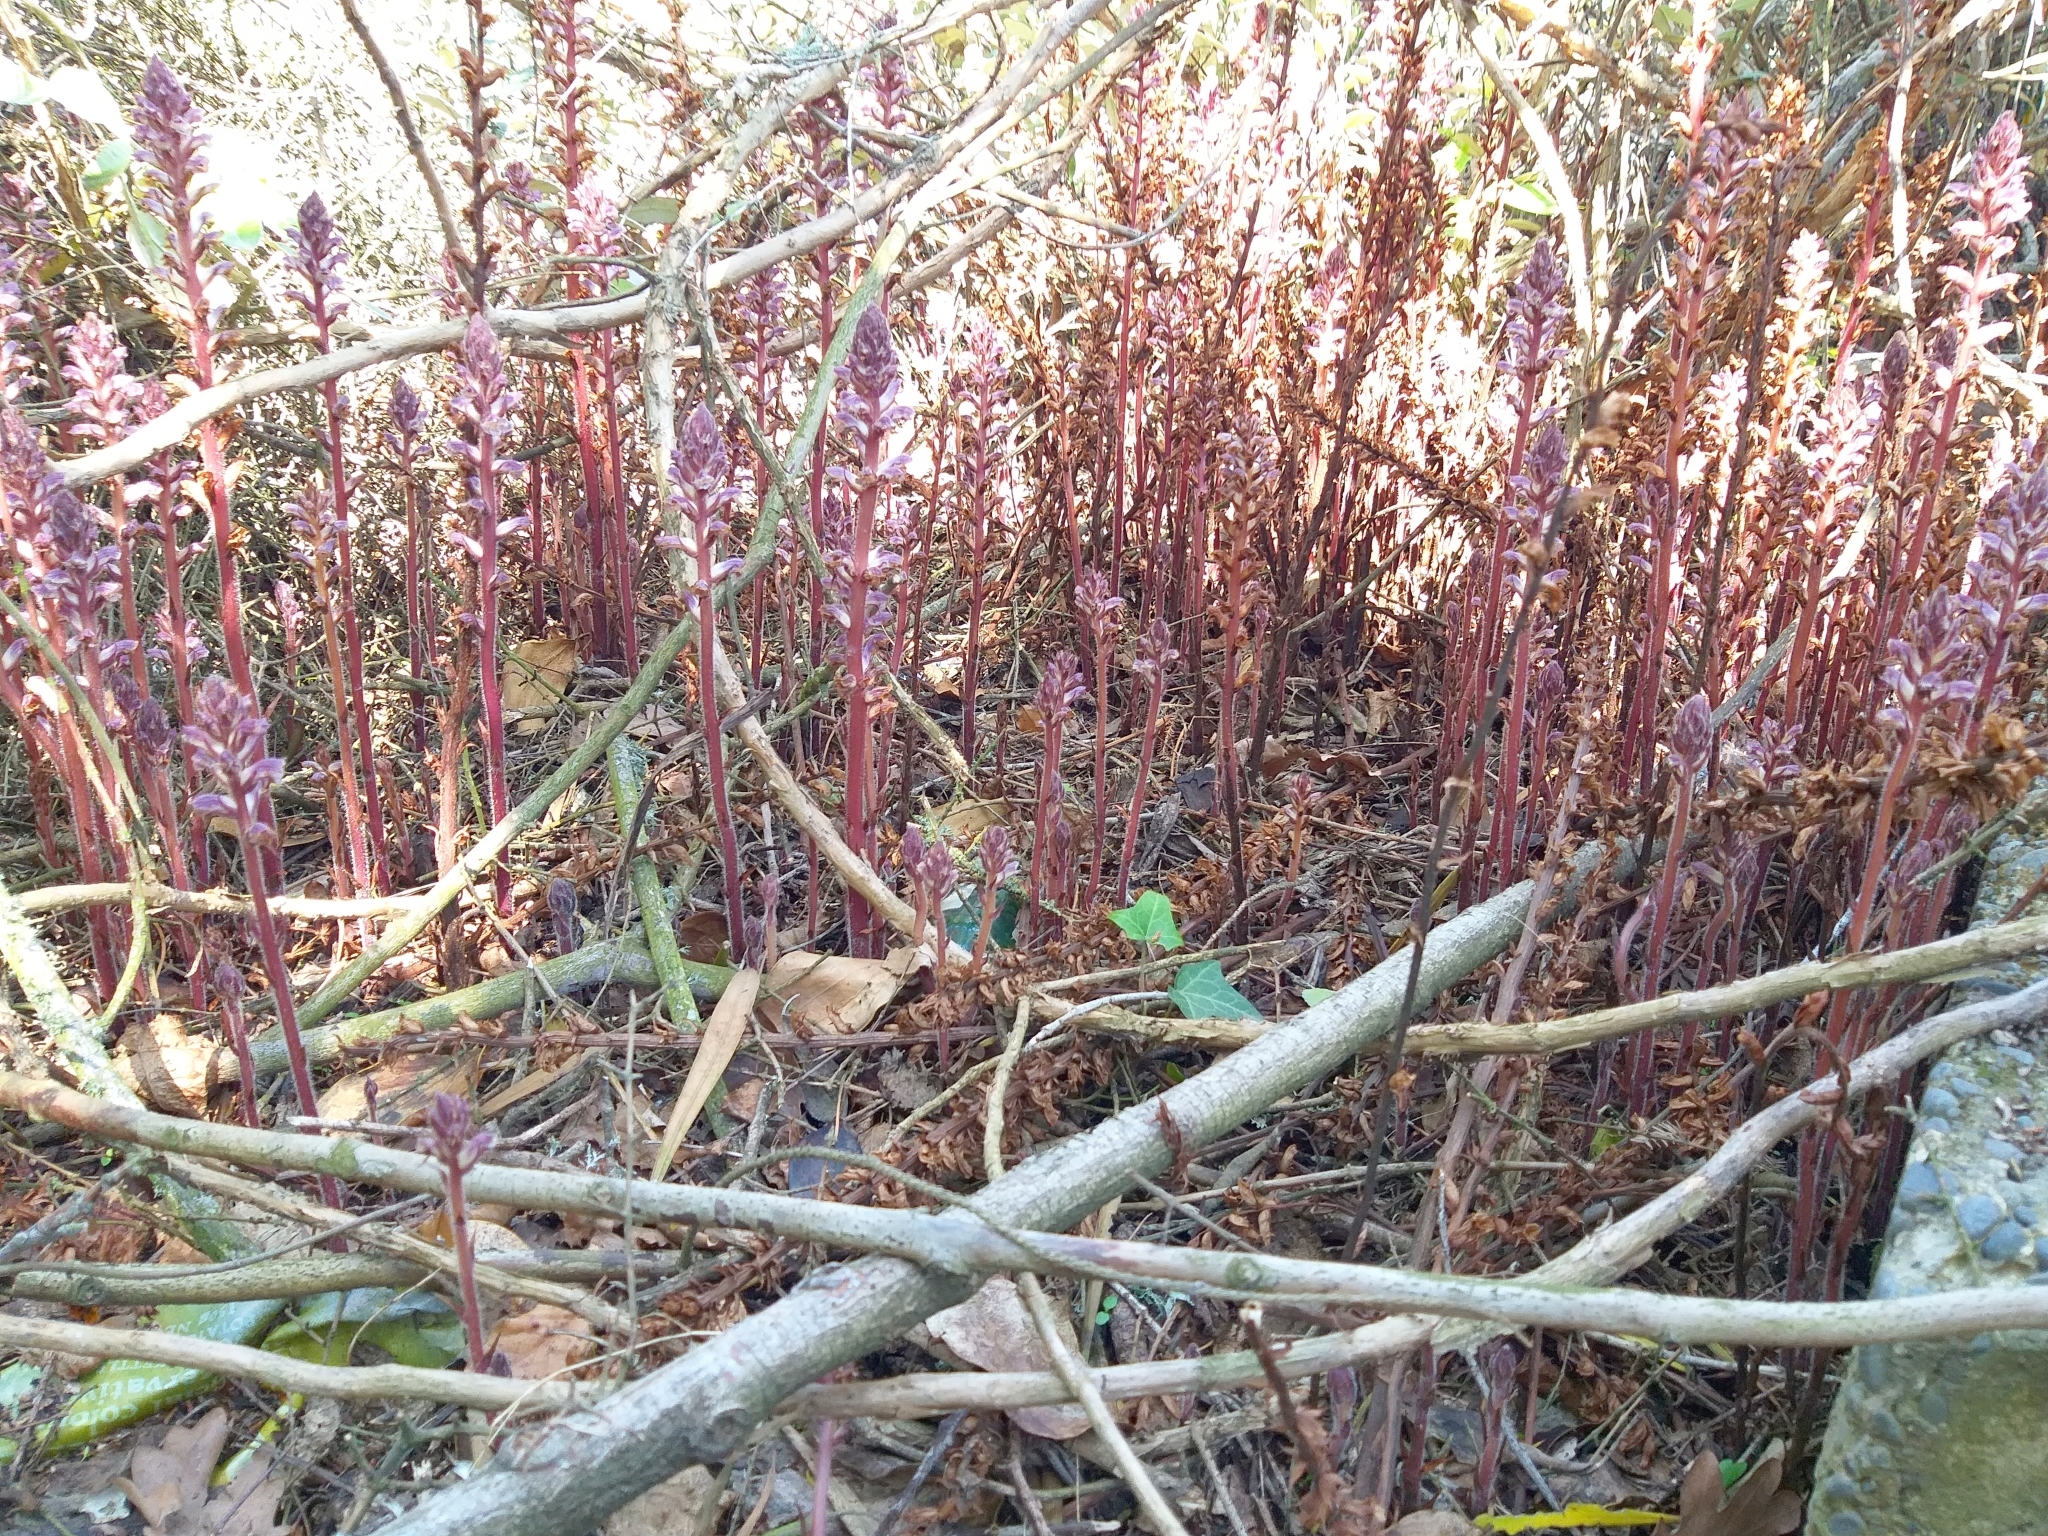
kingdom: Plantae
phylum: Tracheophyta
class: Magnoliopsida
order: Lamiales
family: Orobanchaceae
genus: Orobanche
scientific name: Orobanche minor
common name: Common broomrape
